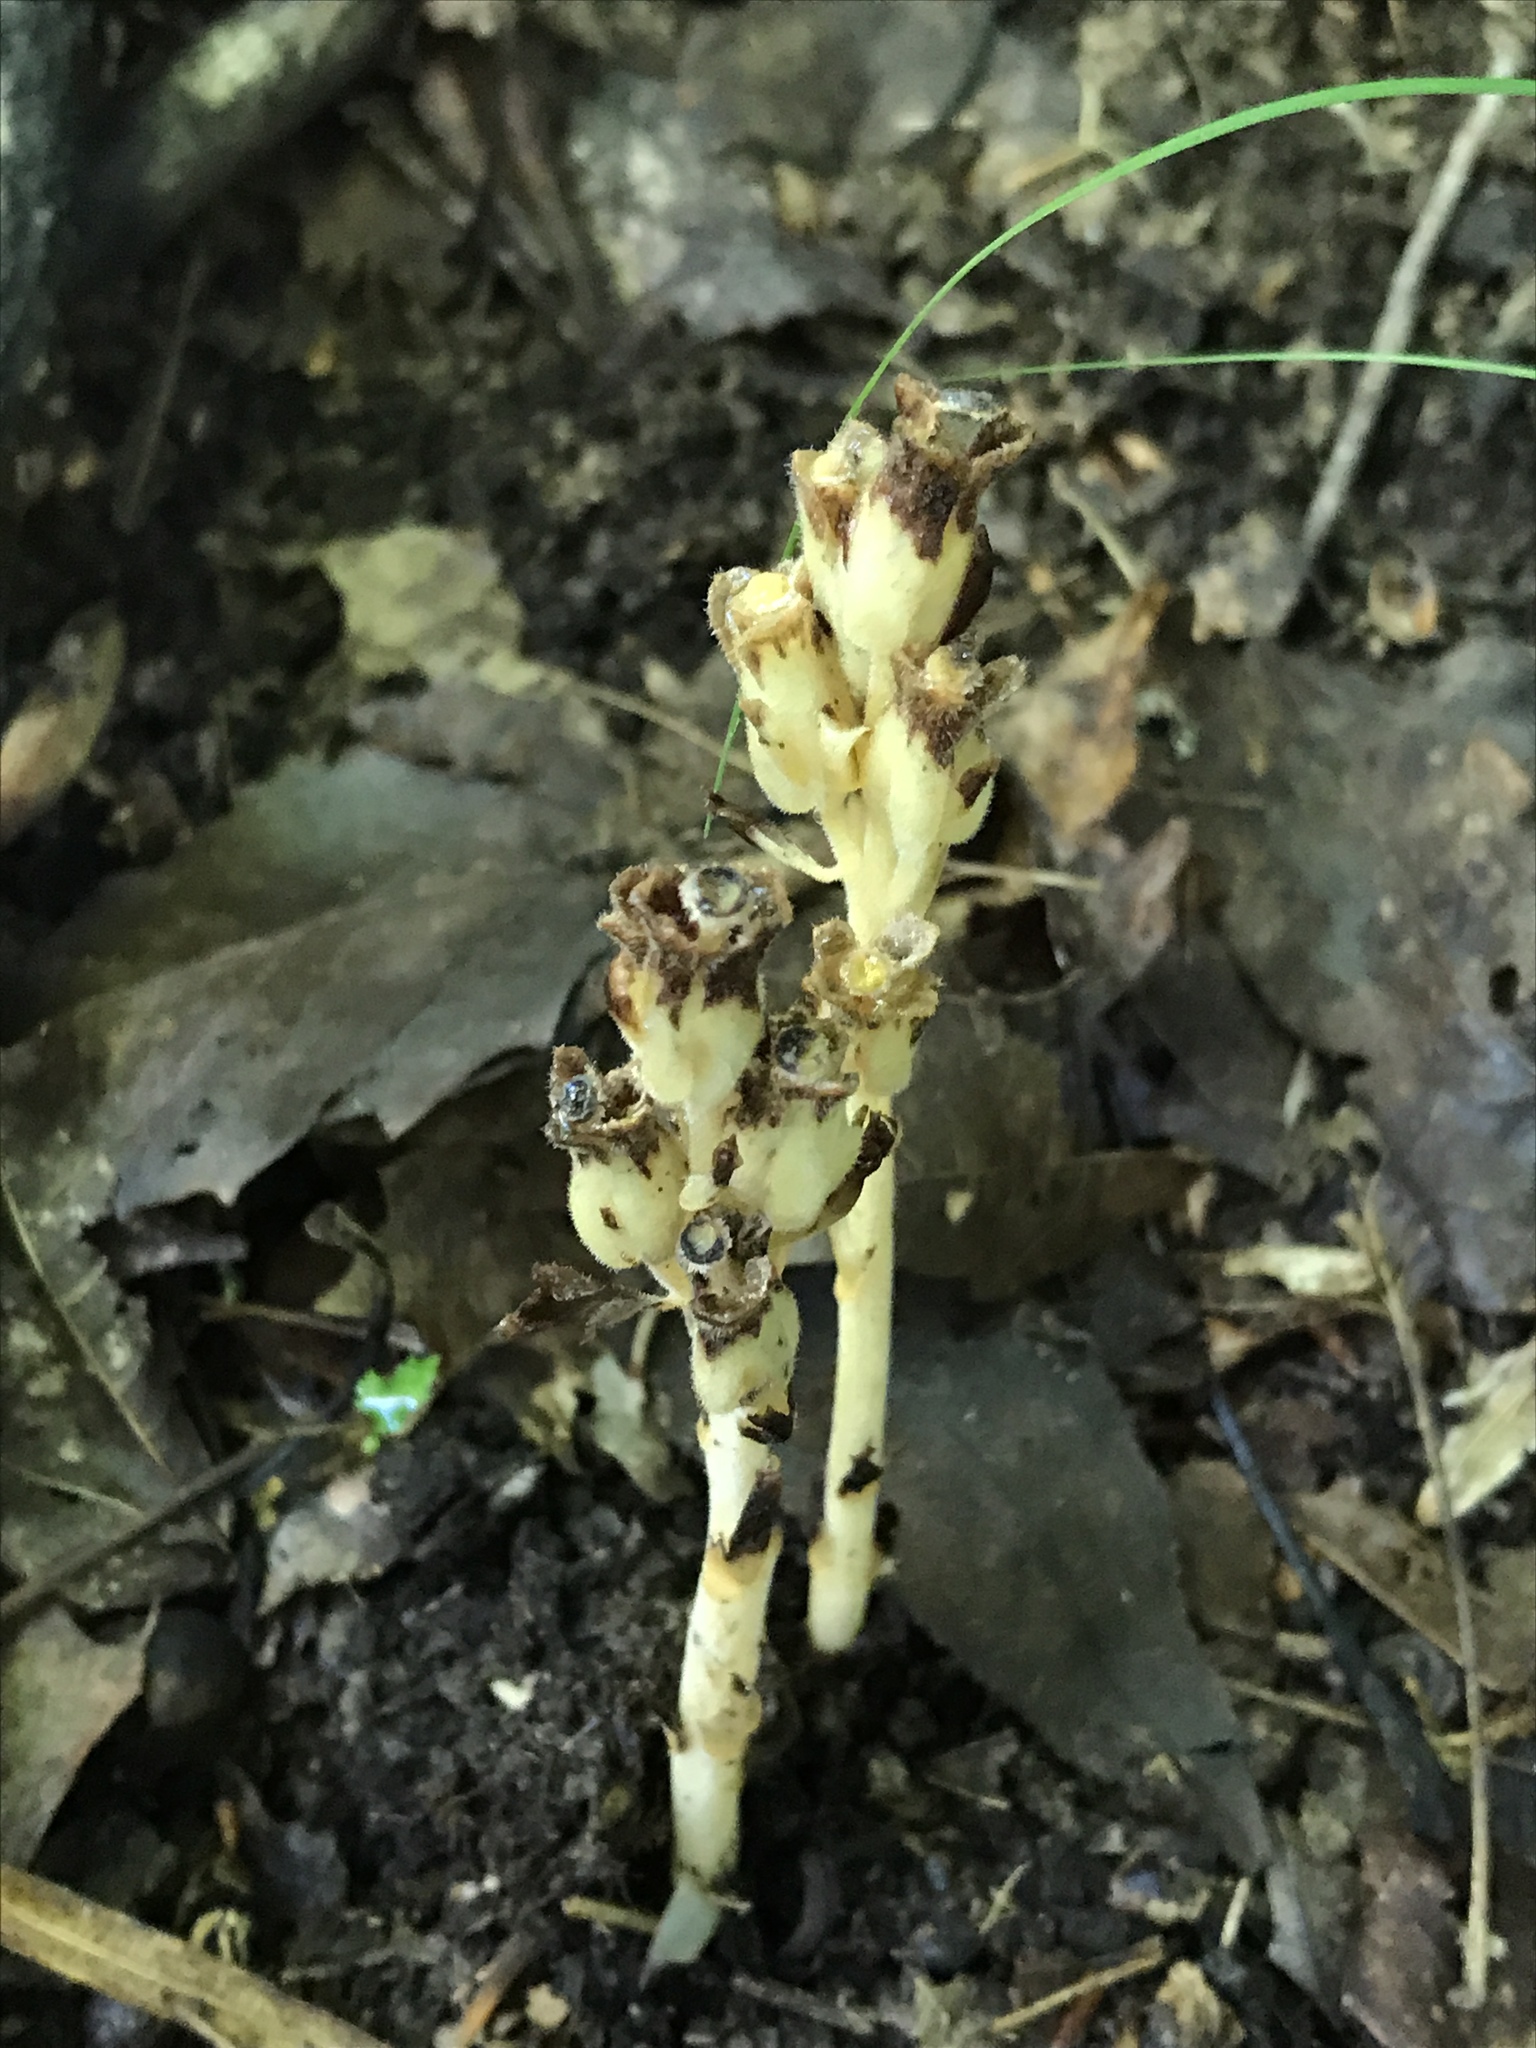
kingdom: Plantae
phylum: Tracheophyta
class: Magnoliopsida
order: Ericales
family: Ericaceae
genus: Hypopitys
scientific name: Hypopitys monotropa
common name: Yellow bird's-nest
